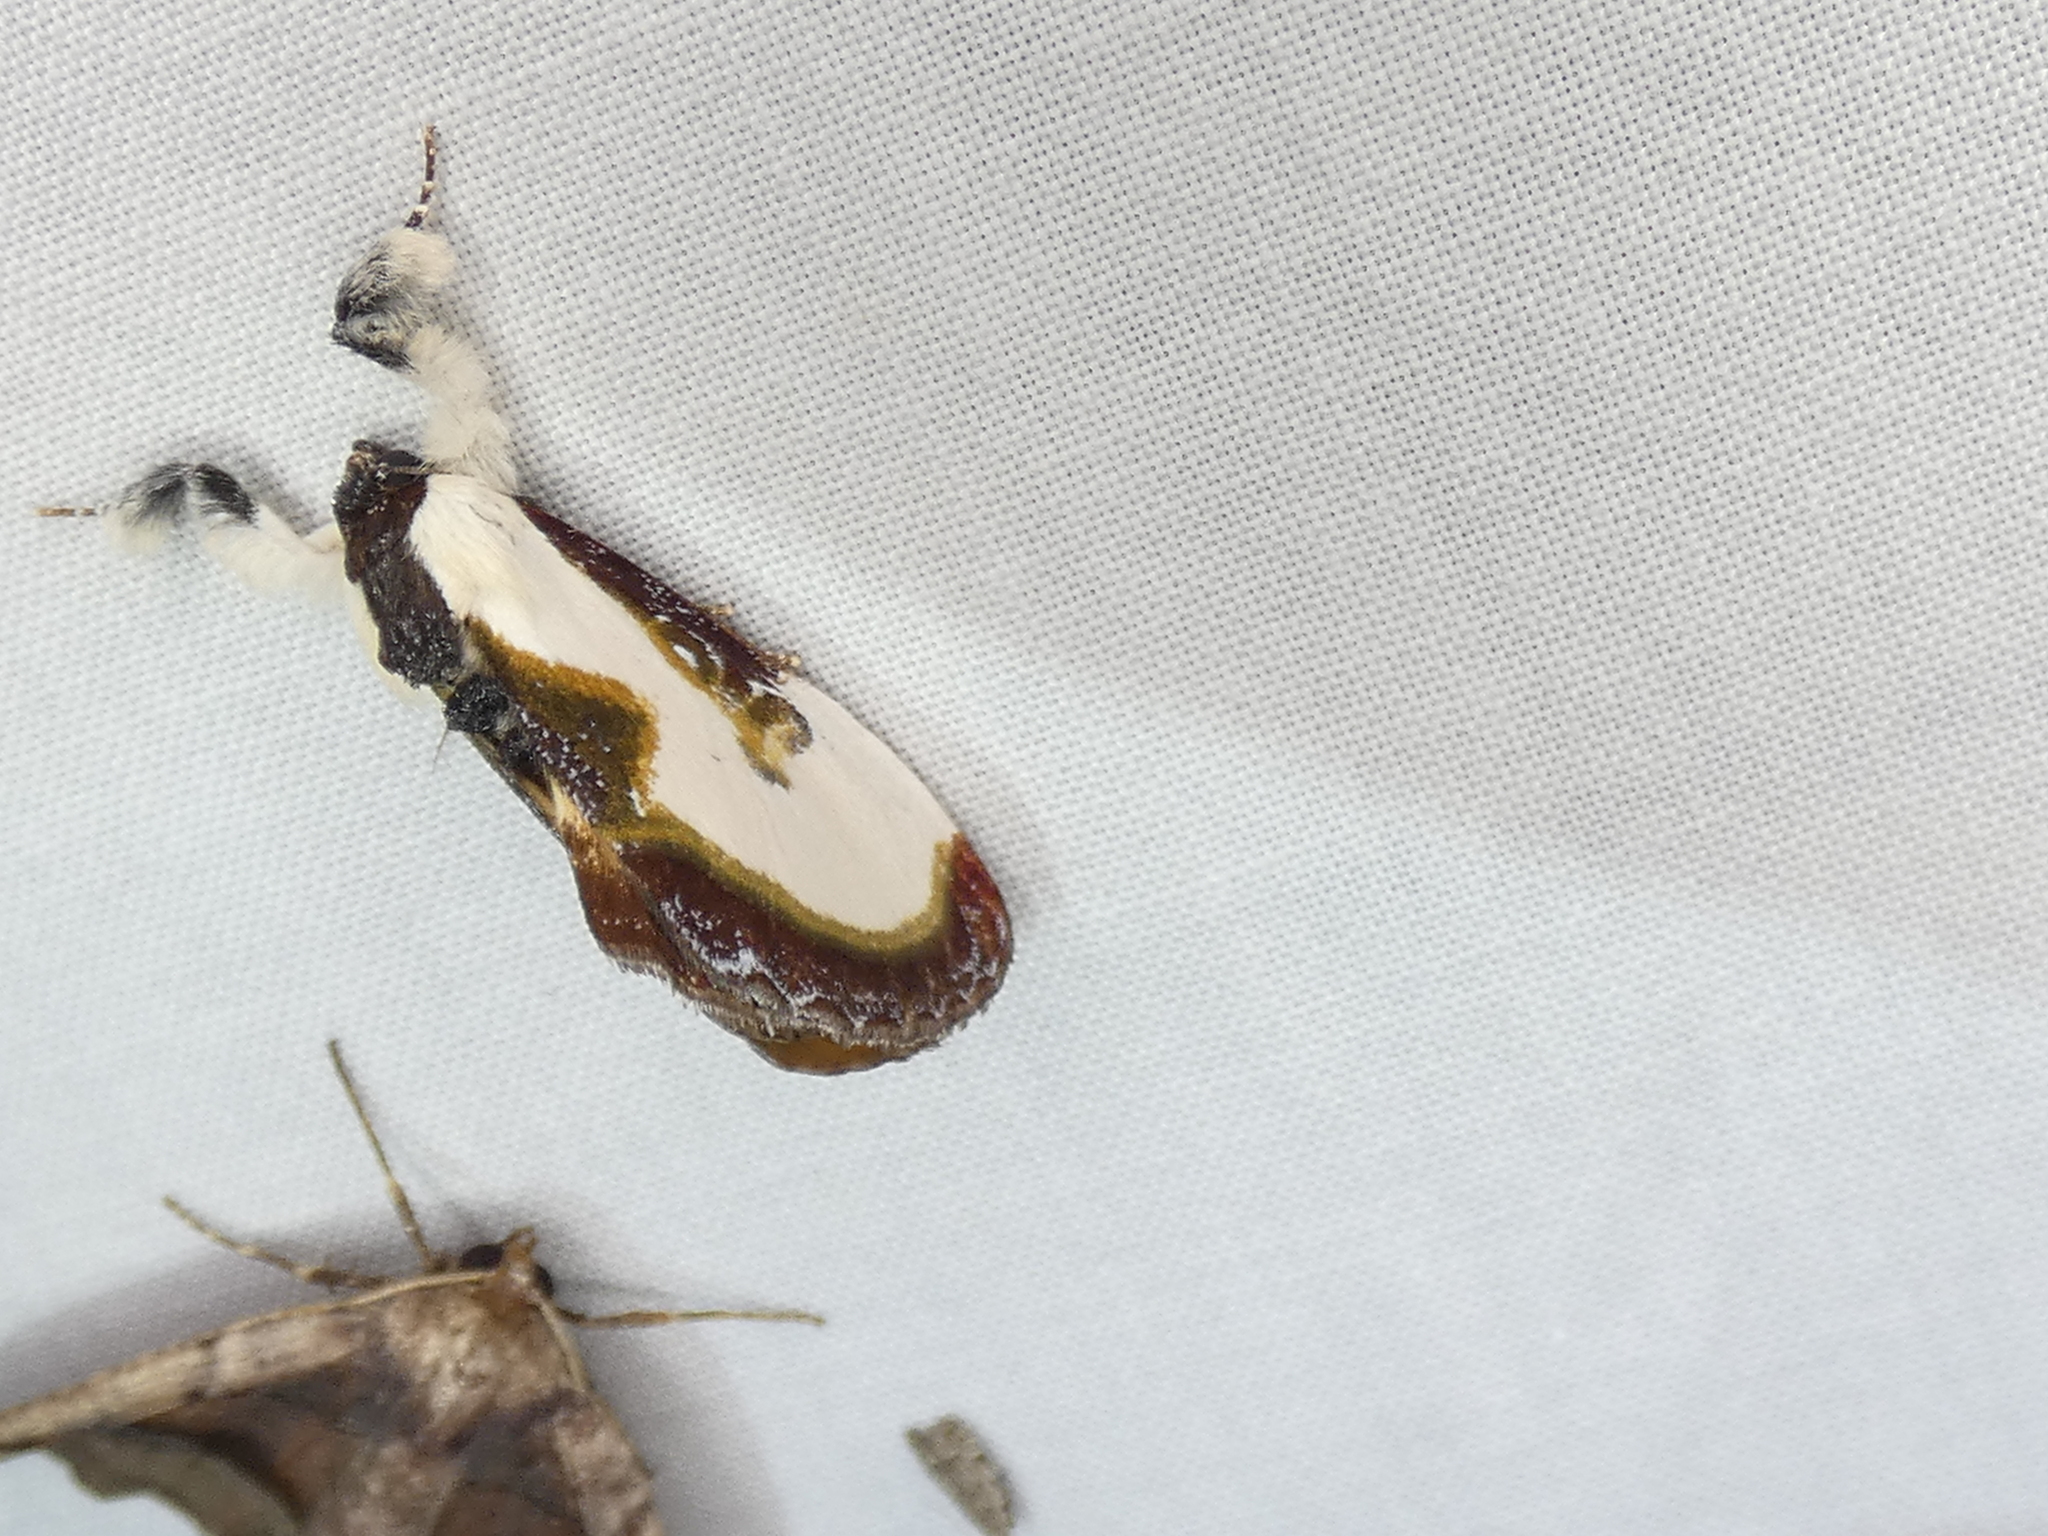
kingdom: Animalia
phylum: Arthropoda
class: Insecta
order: Lepidoptera
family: Noctuidae
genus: Eudryas
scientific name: Eudryas grata
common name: Beautiful wood-nymph
